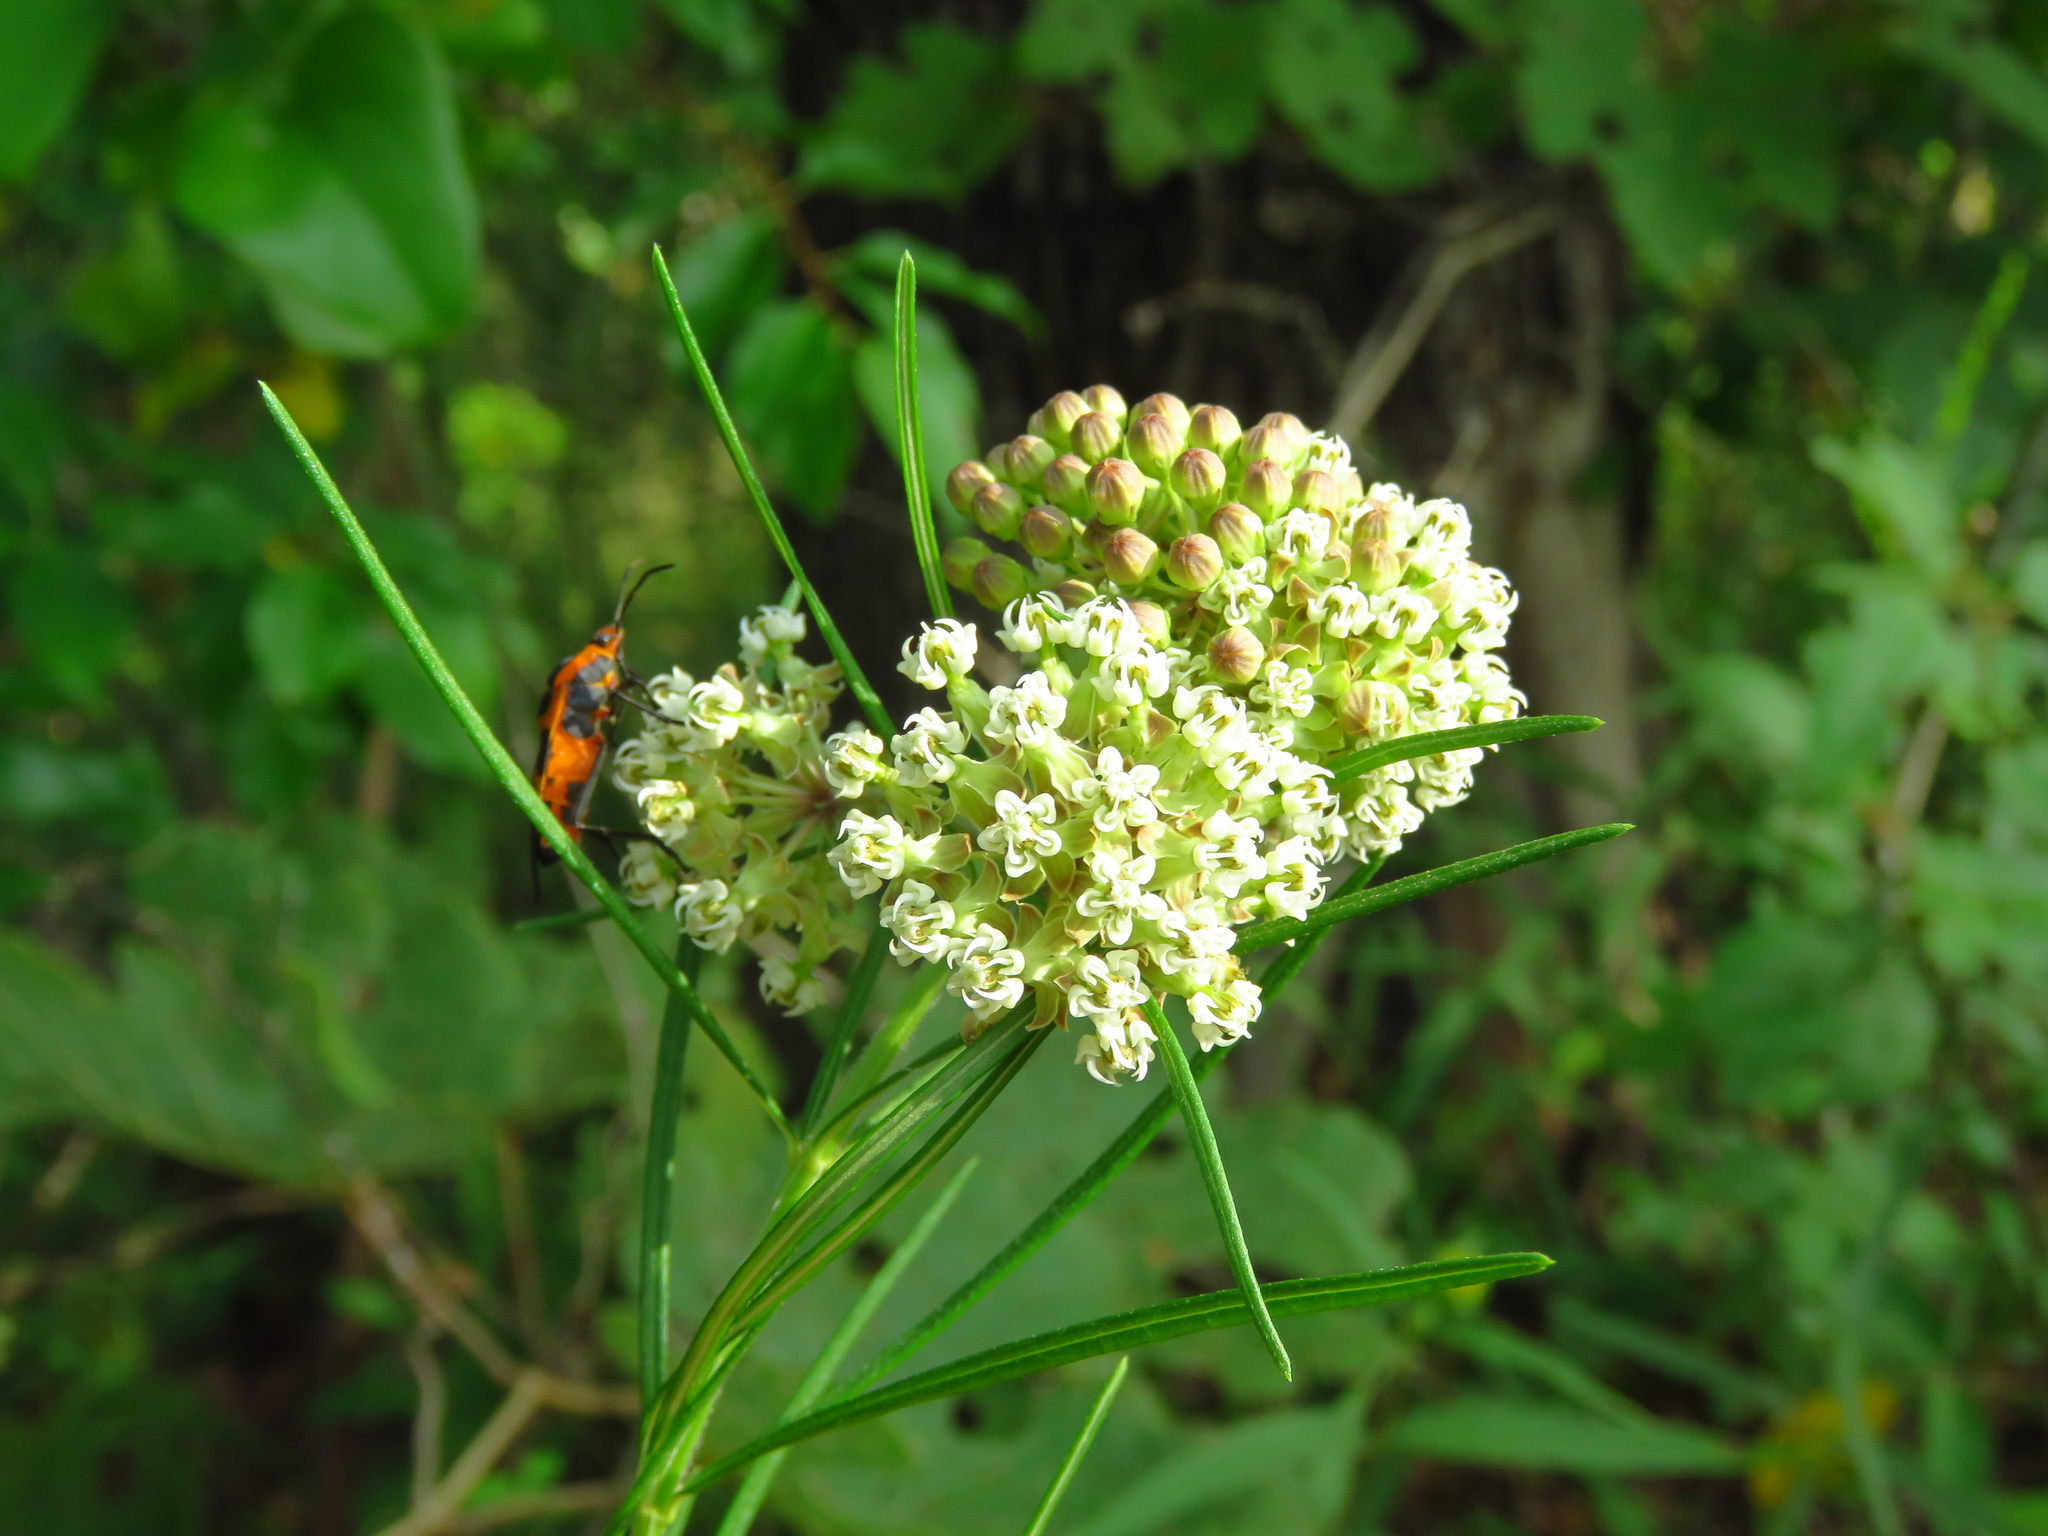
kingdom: Plantae
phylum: Tracheophyta
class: Magnoliopsida
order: Gentianales
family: Apocynaceae
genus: Asclepias
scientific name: Asclepias verticillata
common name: Eastern whorled milkweed
